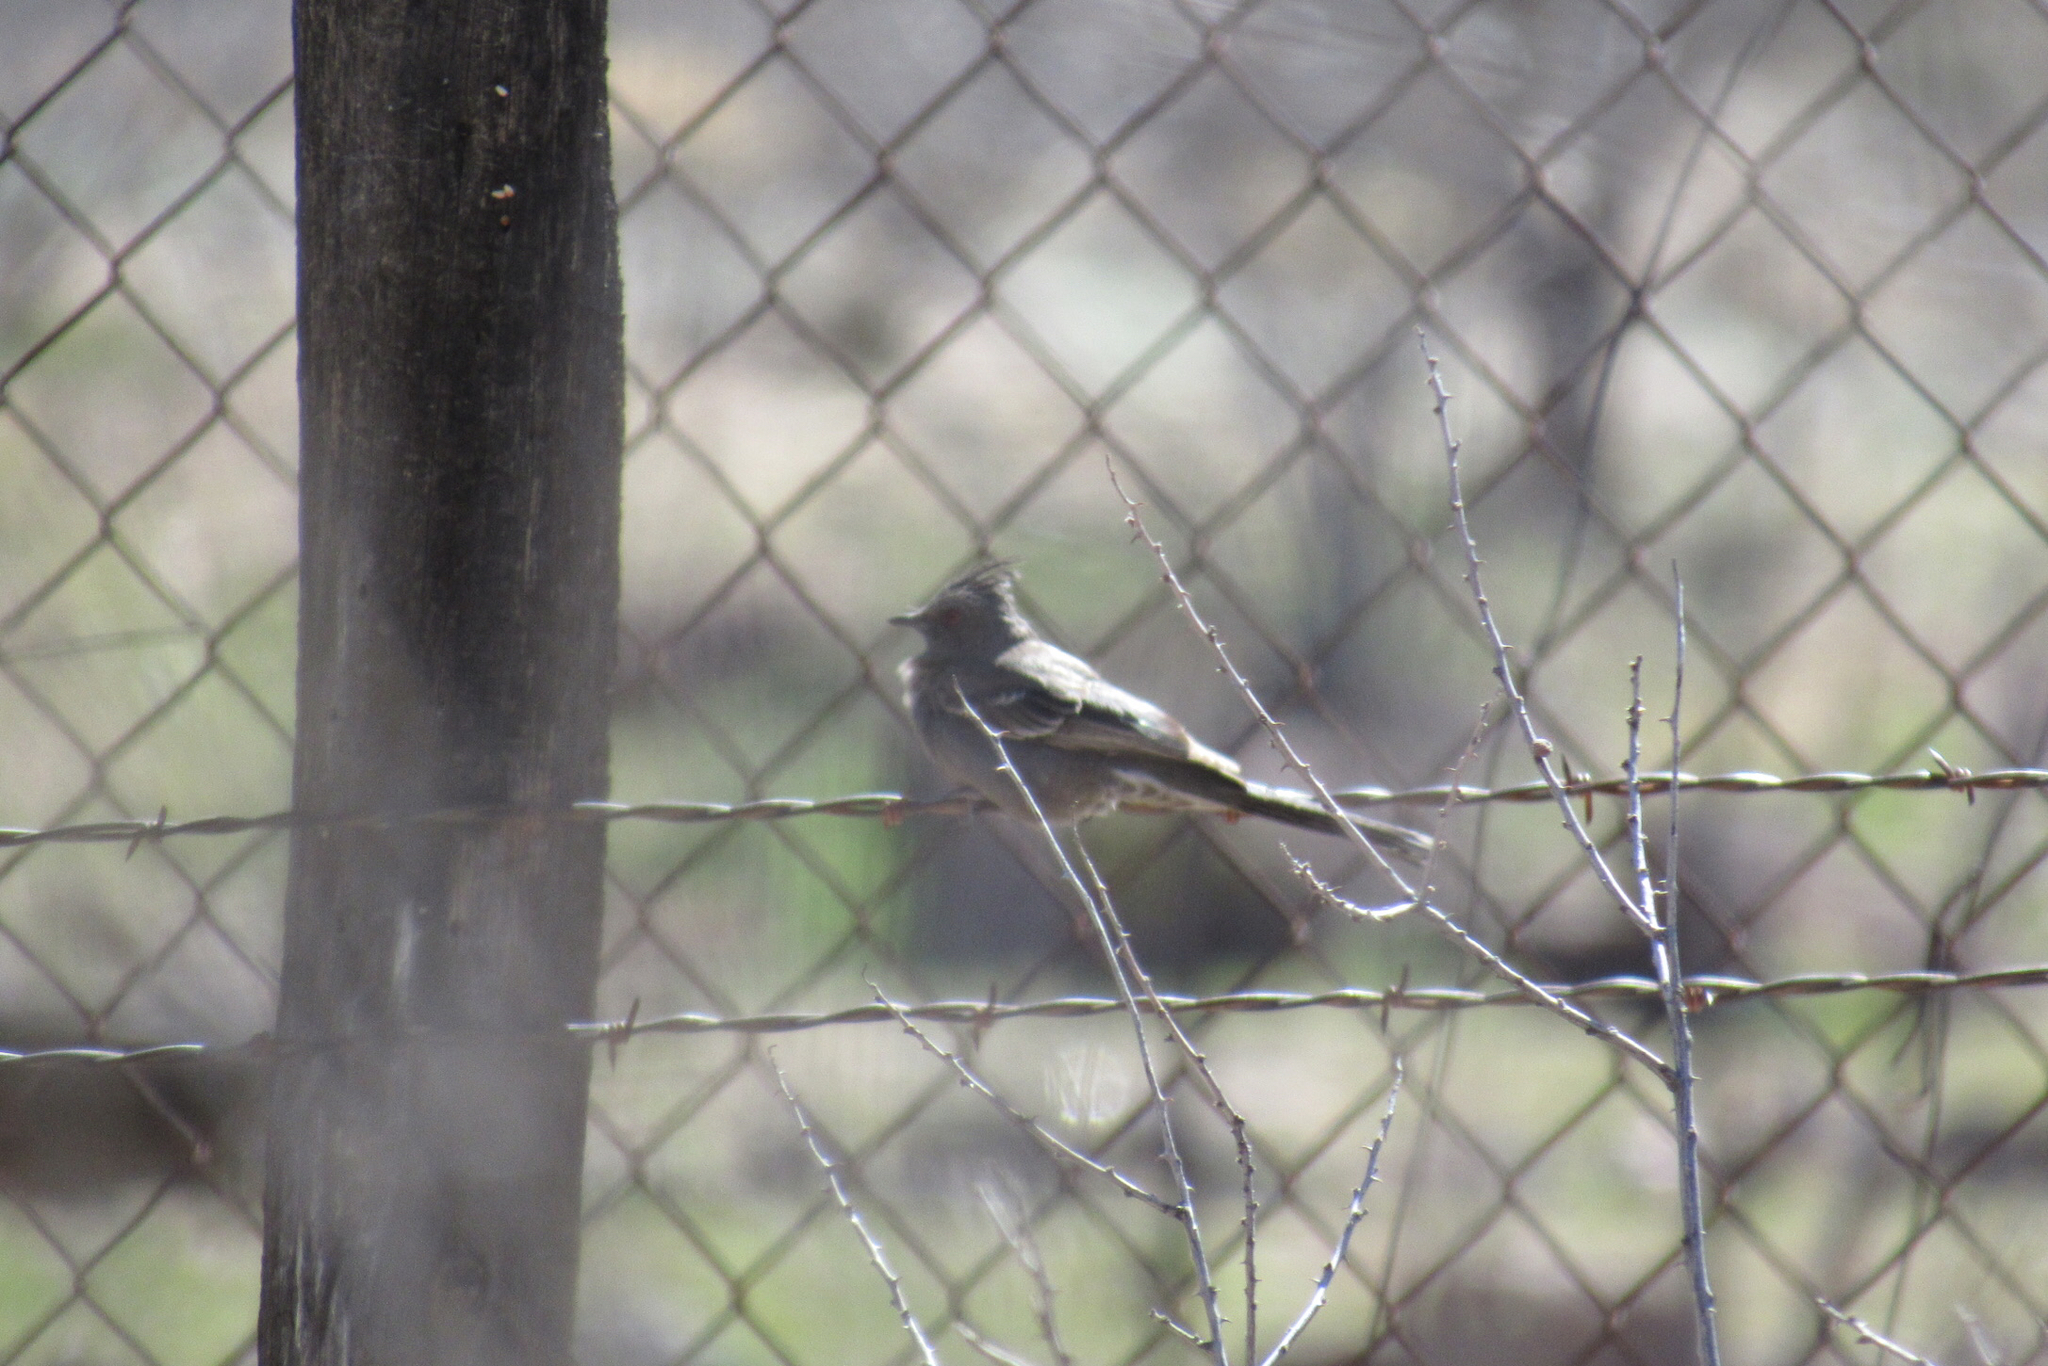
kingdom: Animalia
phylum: Chordata
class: Aves
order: Passeriformes
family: Ptilogonatidae
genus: Phainopepla
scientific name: Phainopepla nitens
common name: Phainopepla
